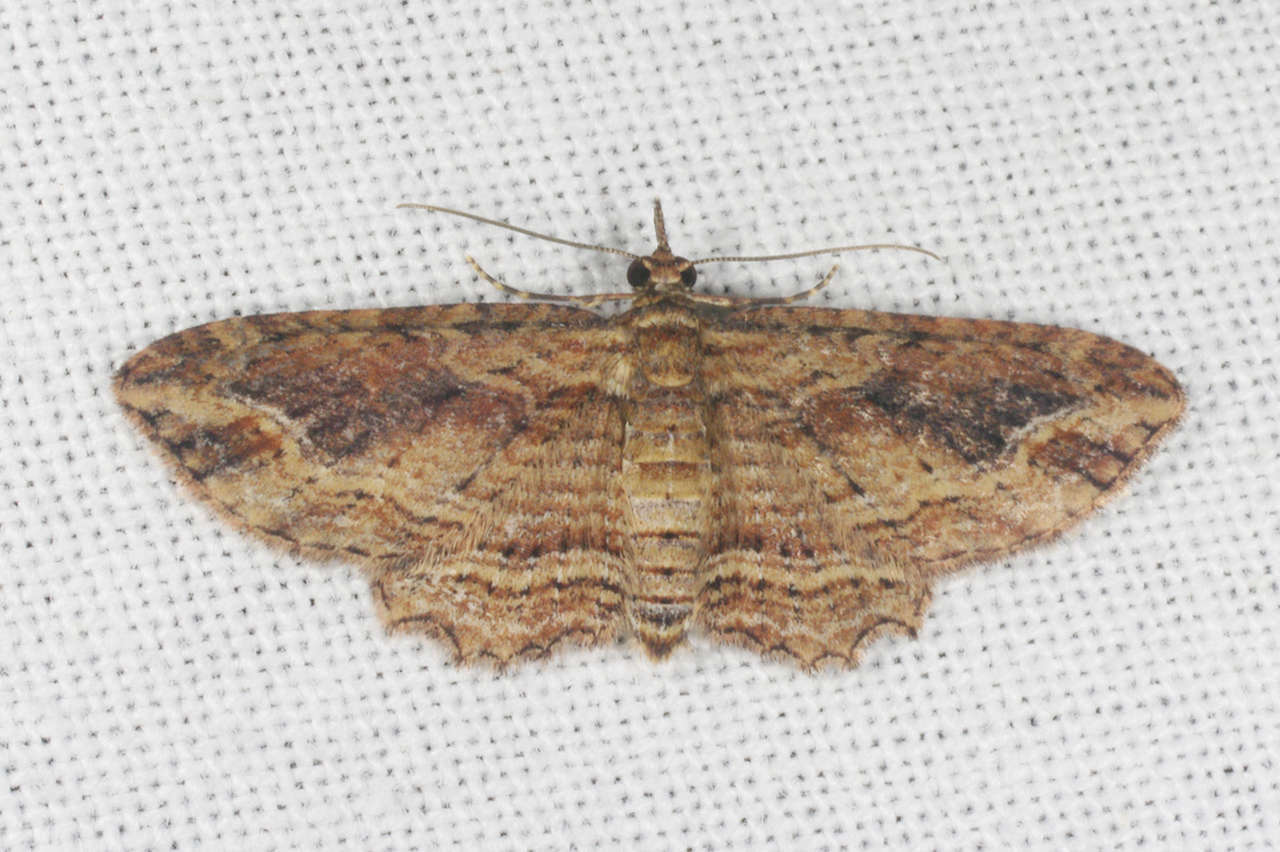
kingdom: Animalia
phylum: Arthropoda
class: Insecta
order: Lepidoptera
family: Geometridae
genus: Chloroclystis
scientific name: Chloroclystis filata
